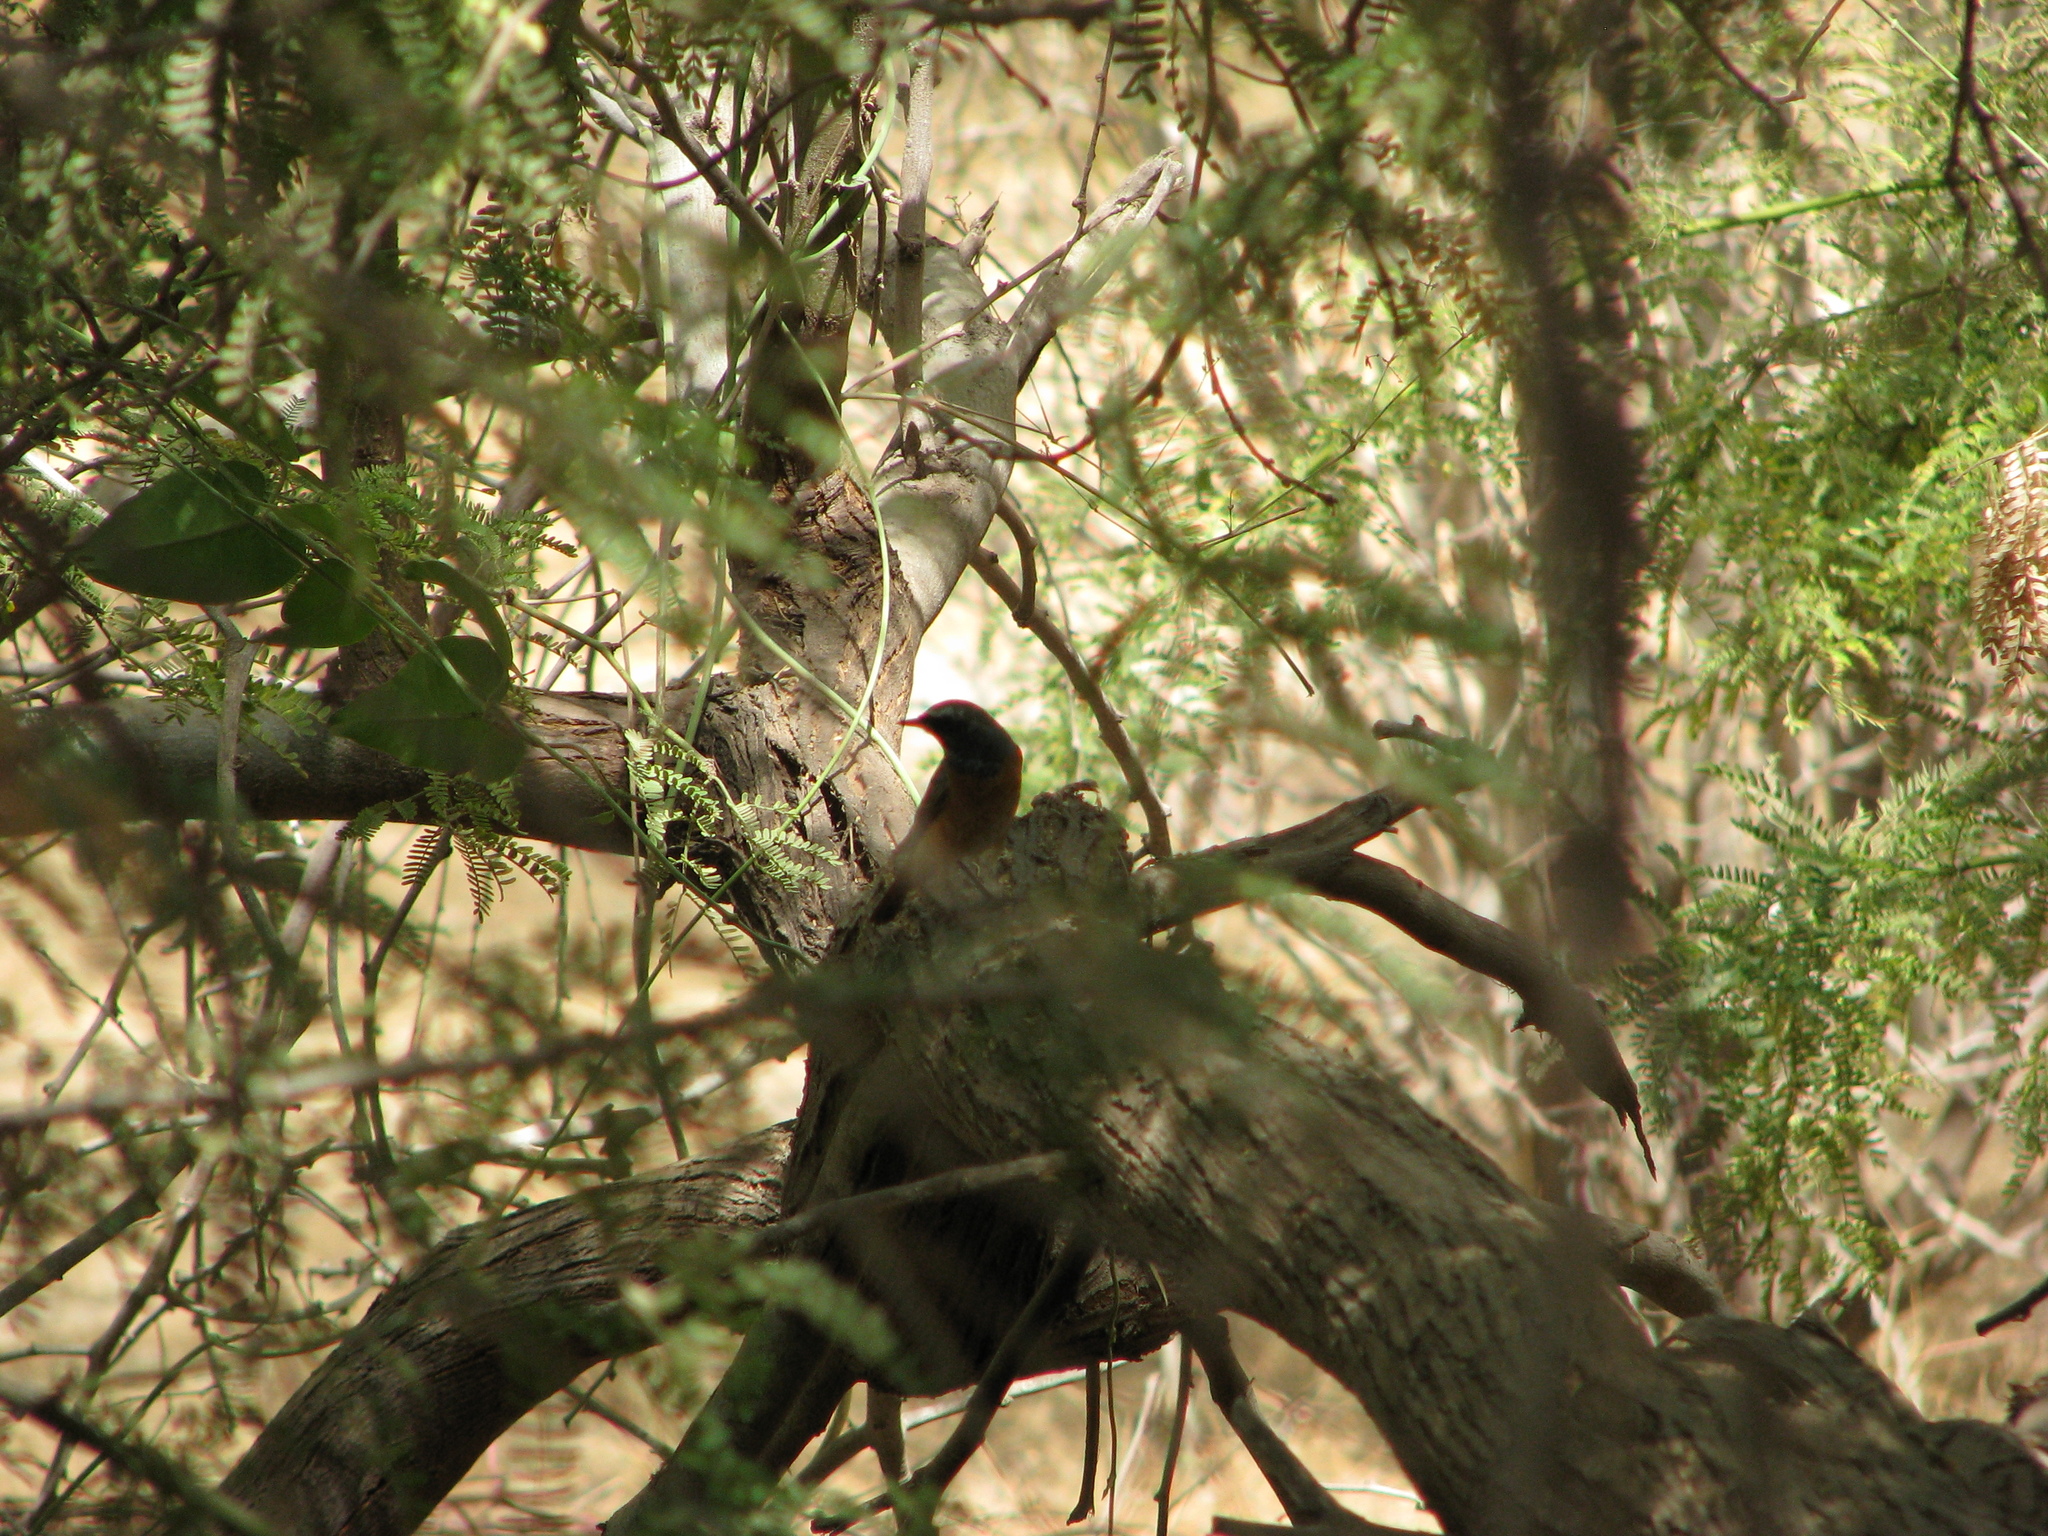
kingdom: Animalia
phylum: Chordata
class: Aves
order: Passeriformes
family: Muscicapidae
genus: Phoenicurus
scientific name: Phoenicurus phoenicurus
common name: Common redstart
